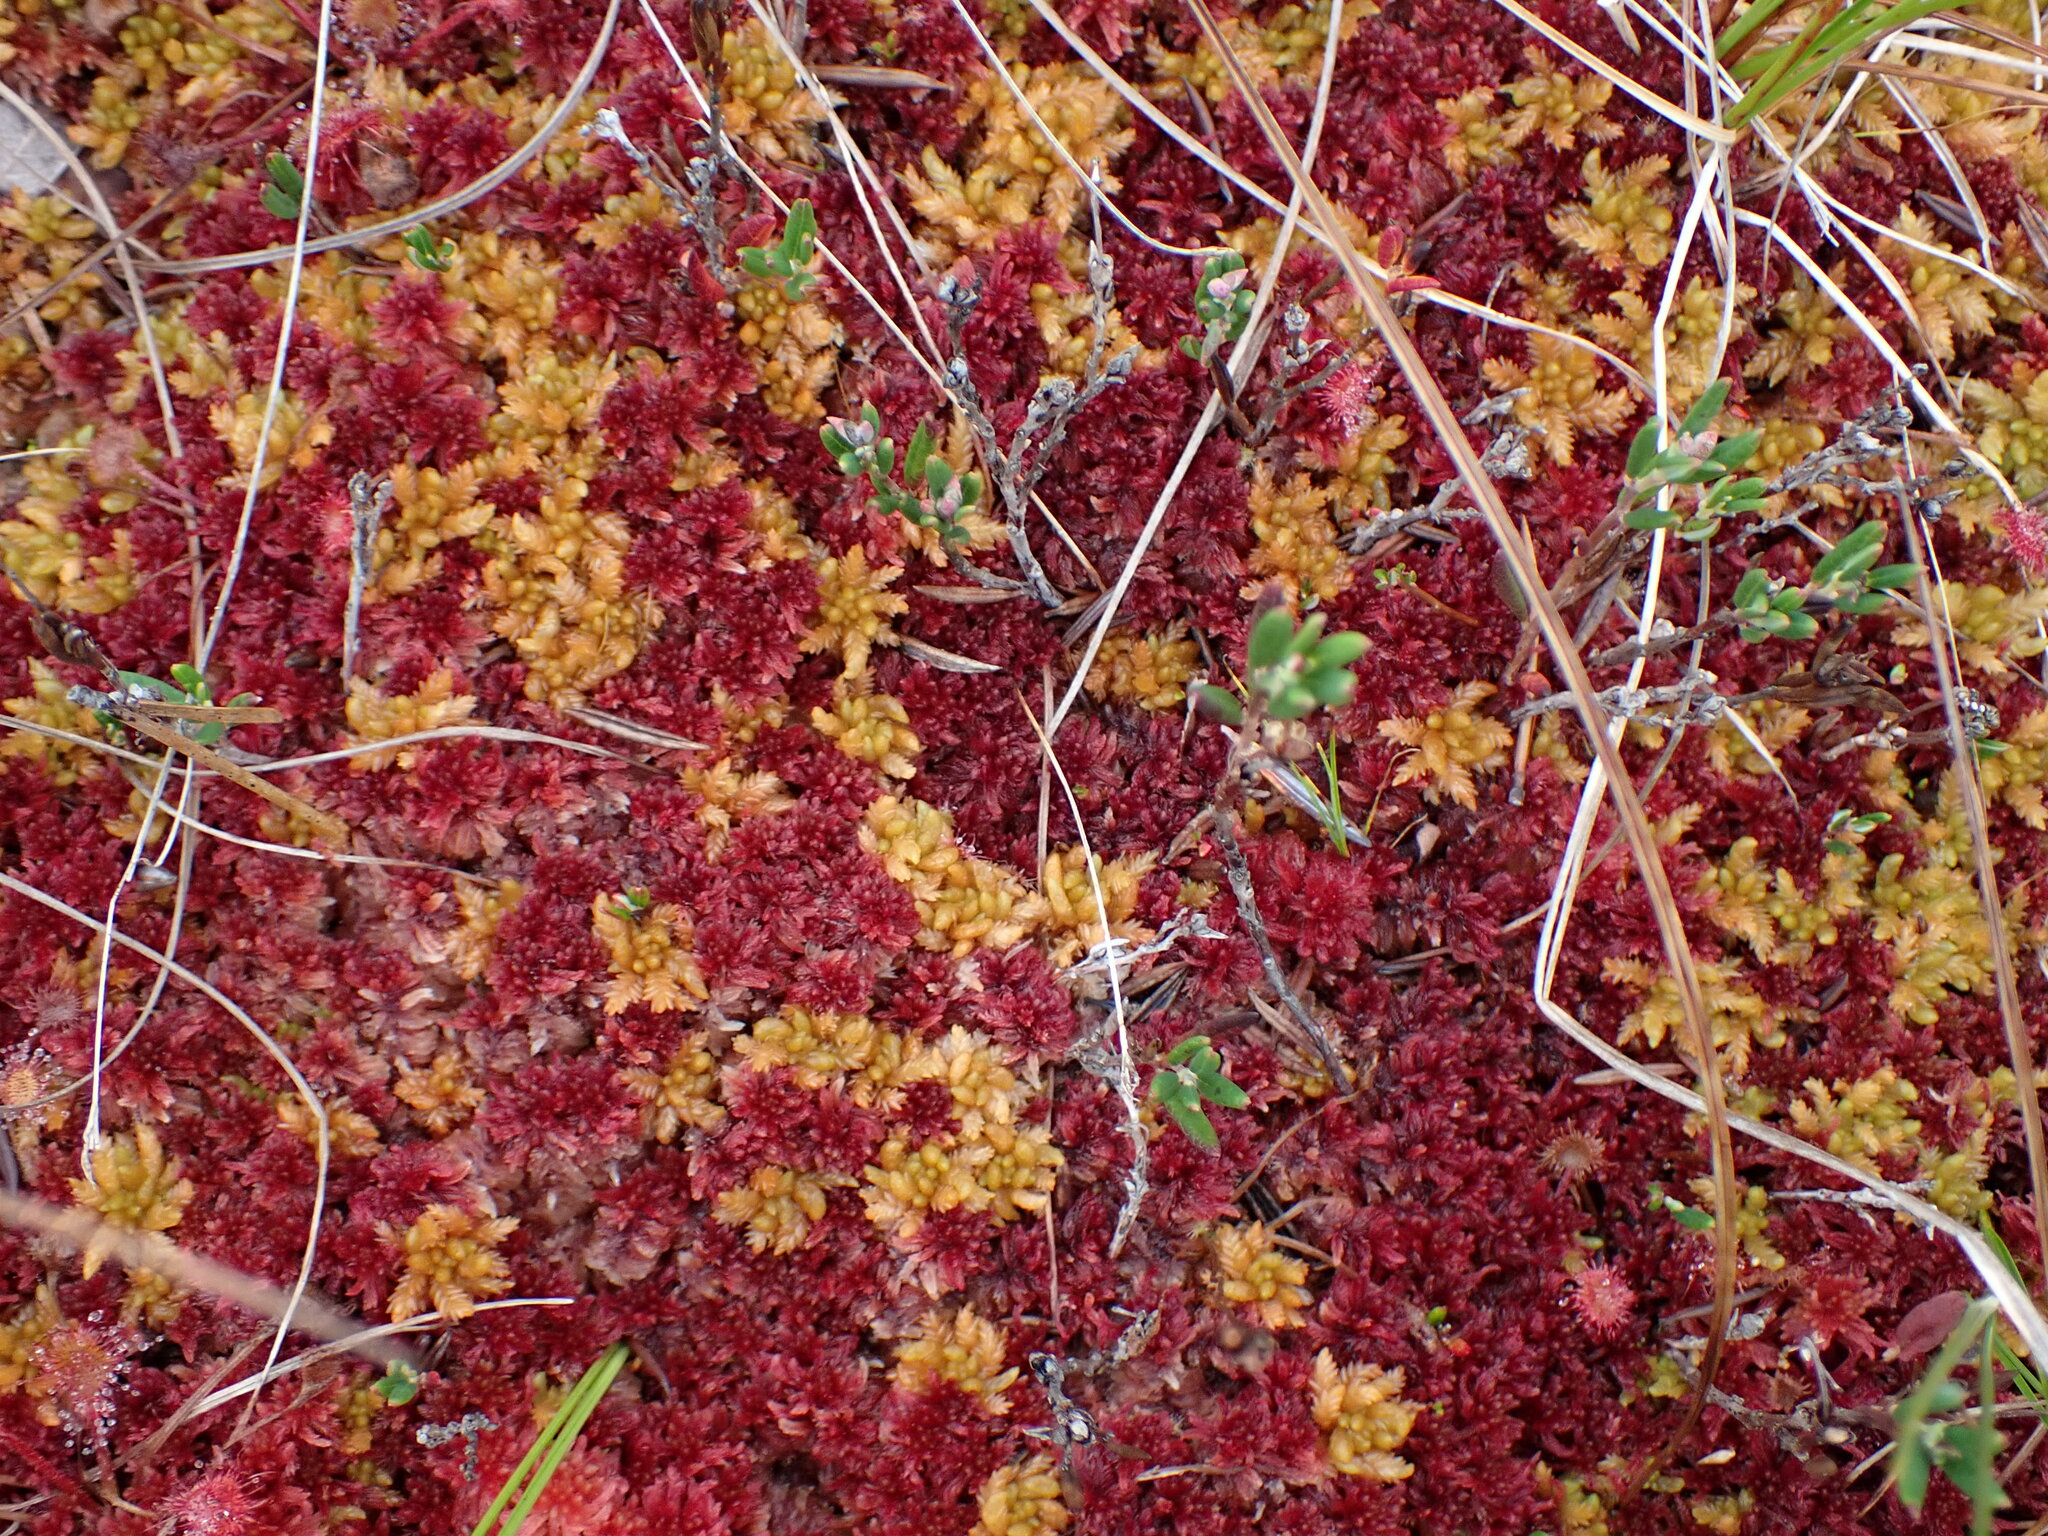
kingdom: Plantae
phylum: Bryophyta
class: Sphagnopsida
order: Sphagnales
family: Sphagnaceae
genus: Sphagnum
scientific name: Sphagnum rubellum
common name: Red peat moss
